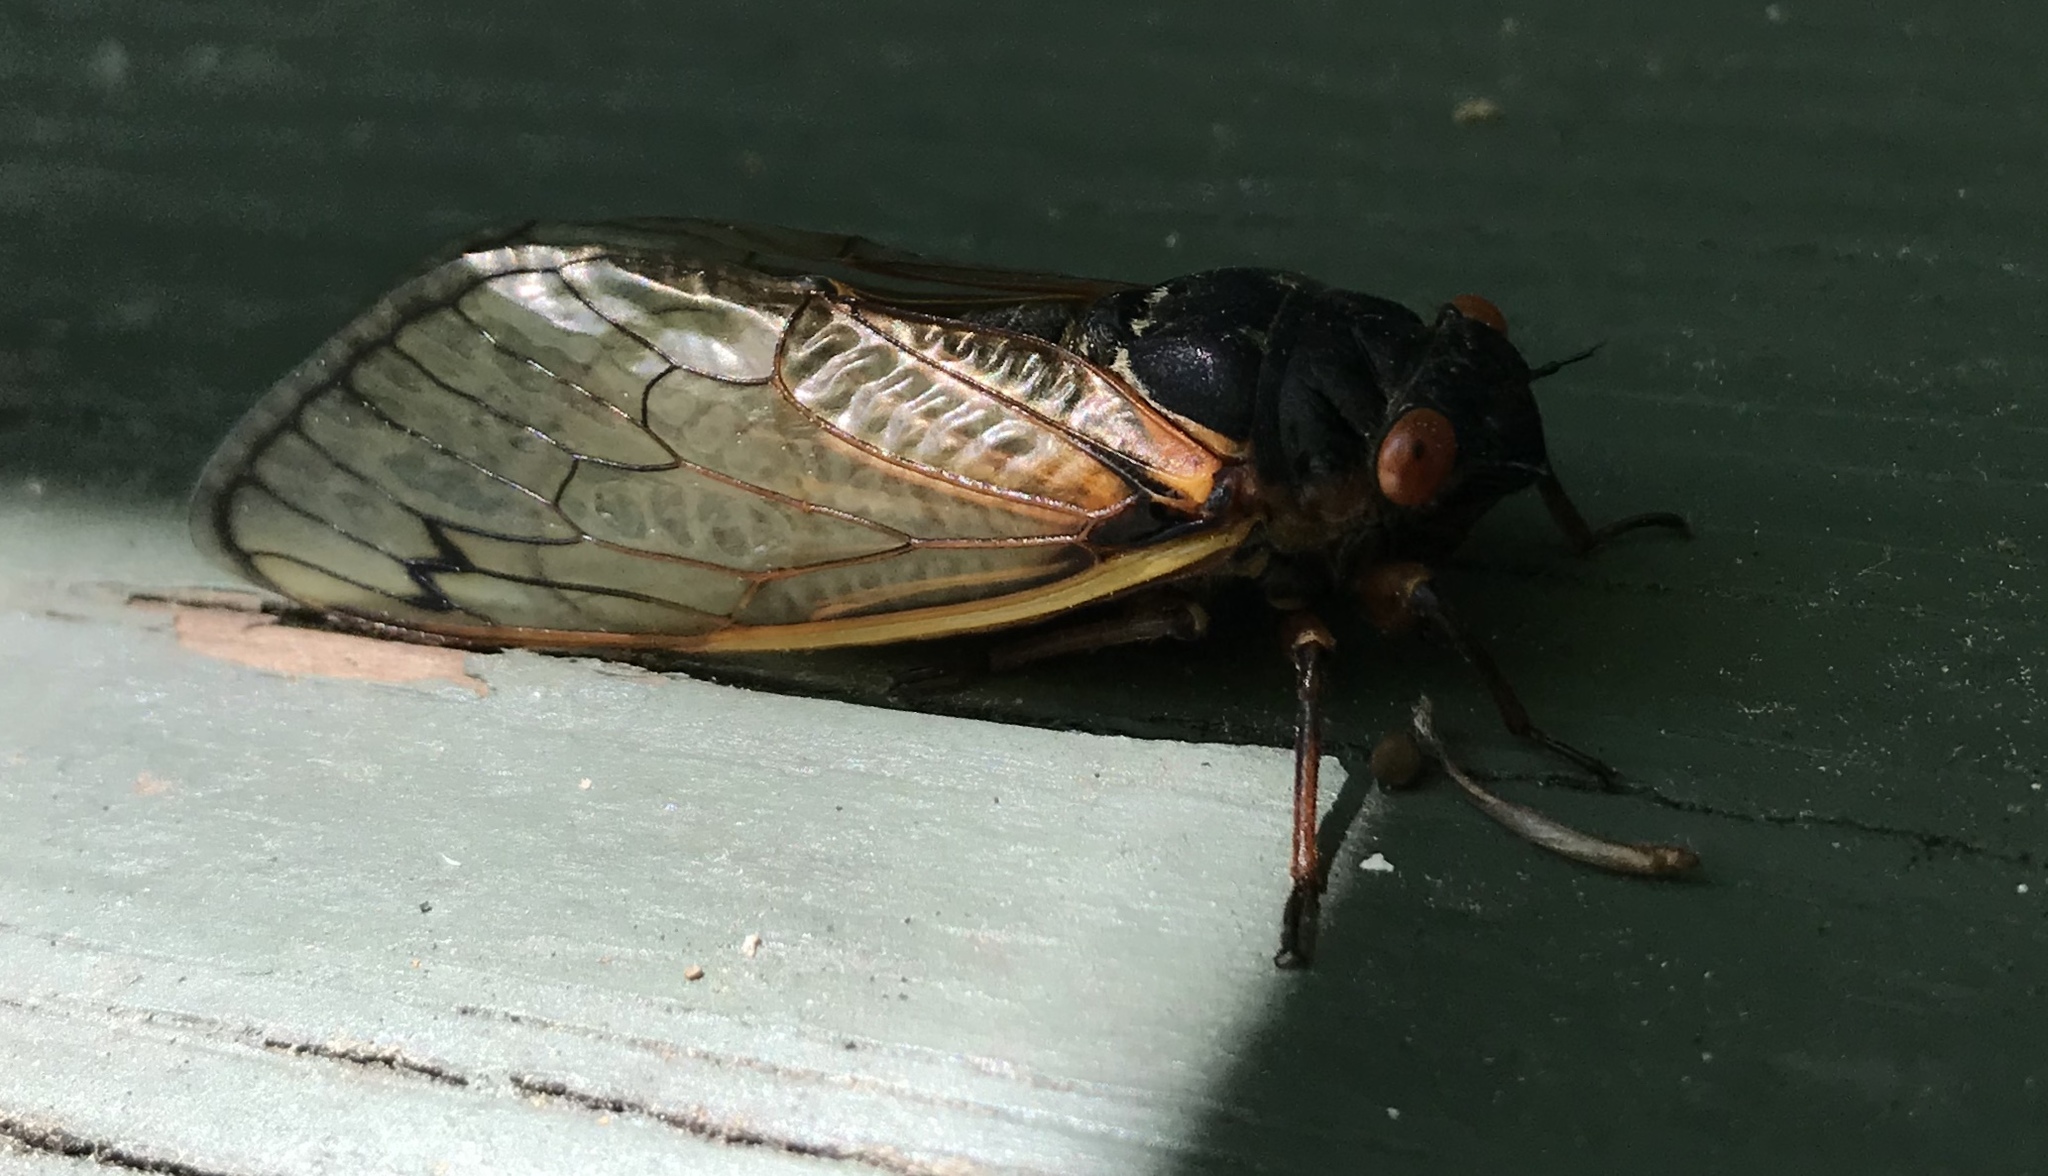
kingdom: Animalia
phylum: Arthropoda
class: Insecta
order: Hemiptera
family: Cicadidae
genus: Magicicada
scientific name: Magicicada septendecim
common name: Periodical cicada
